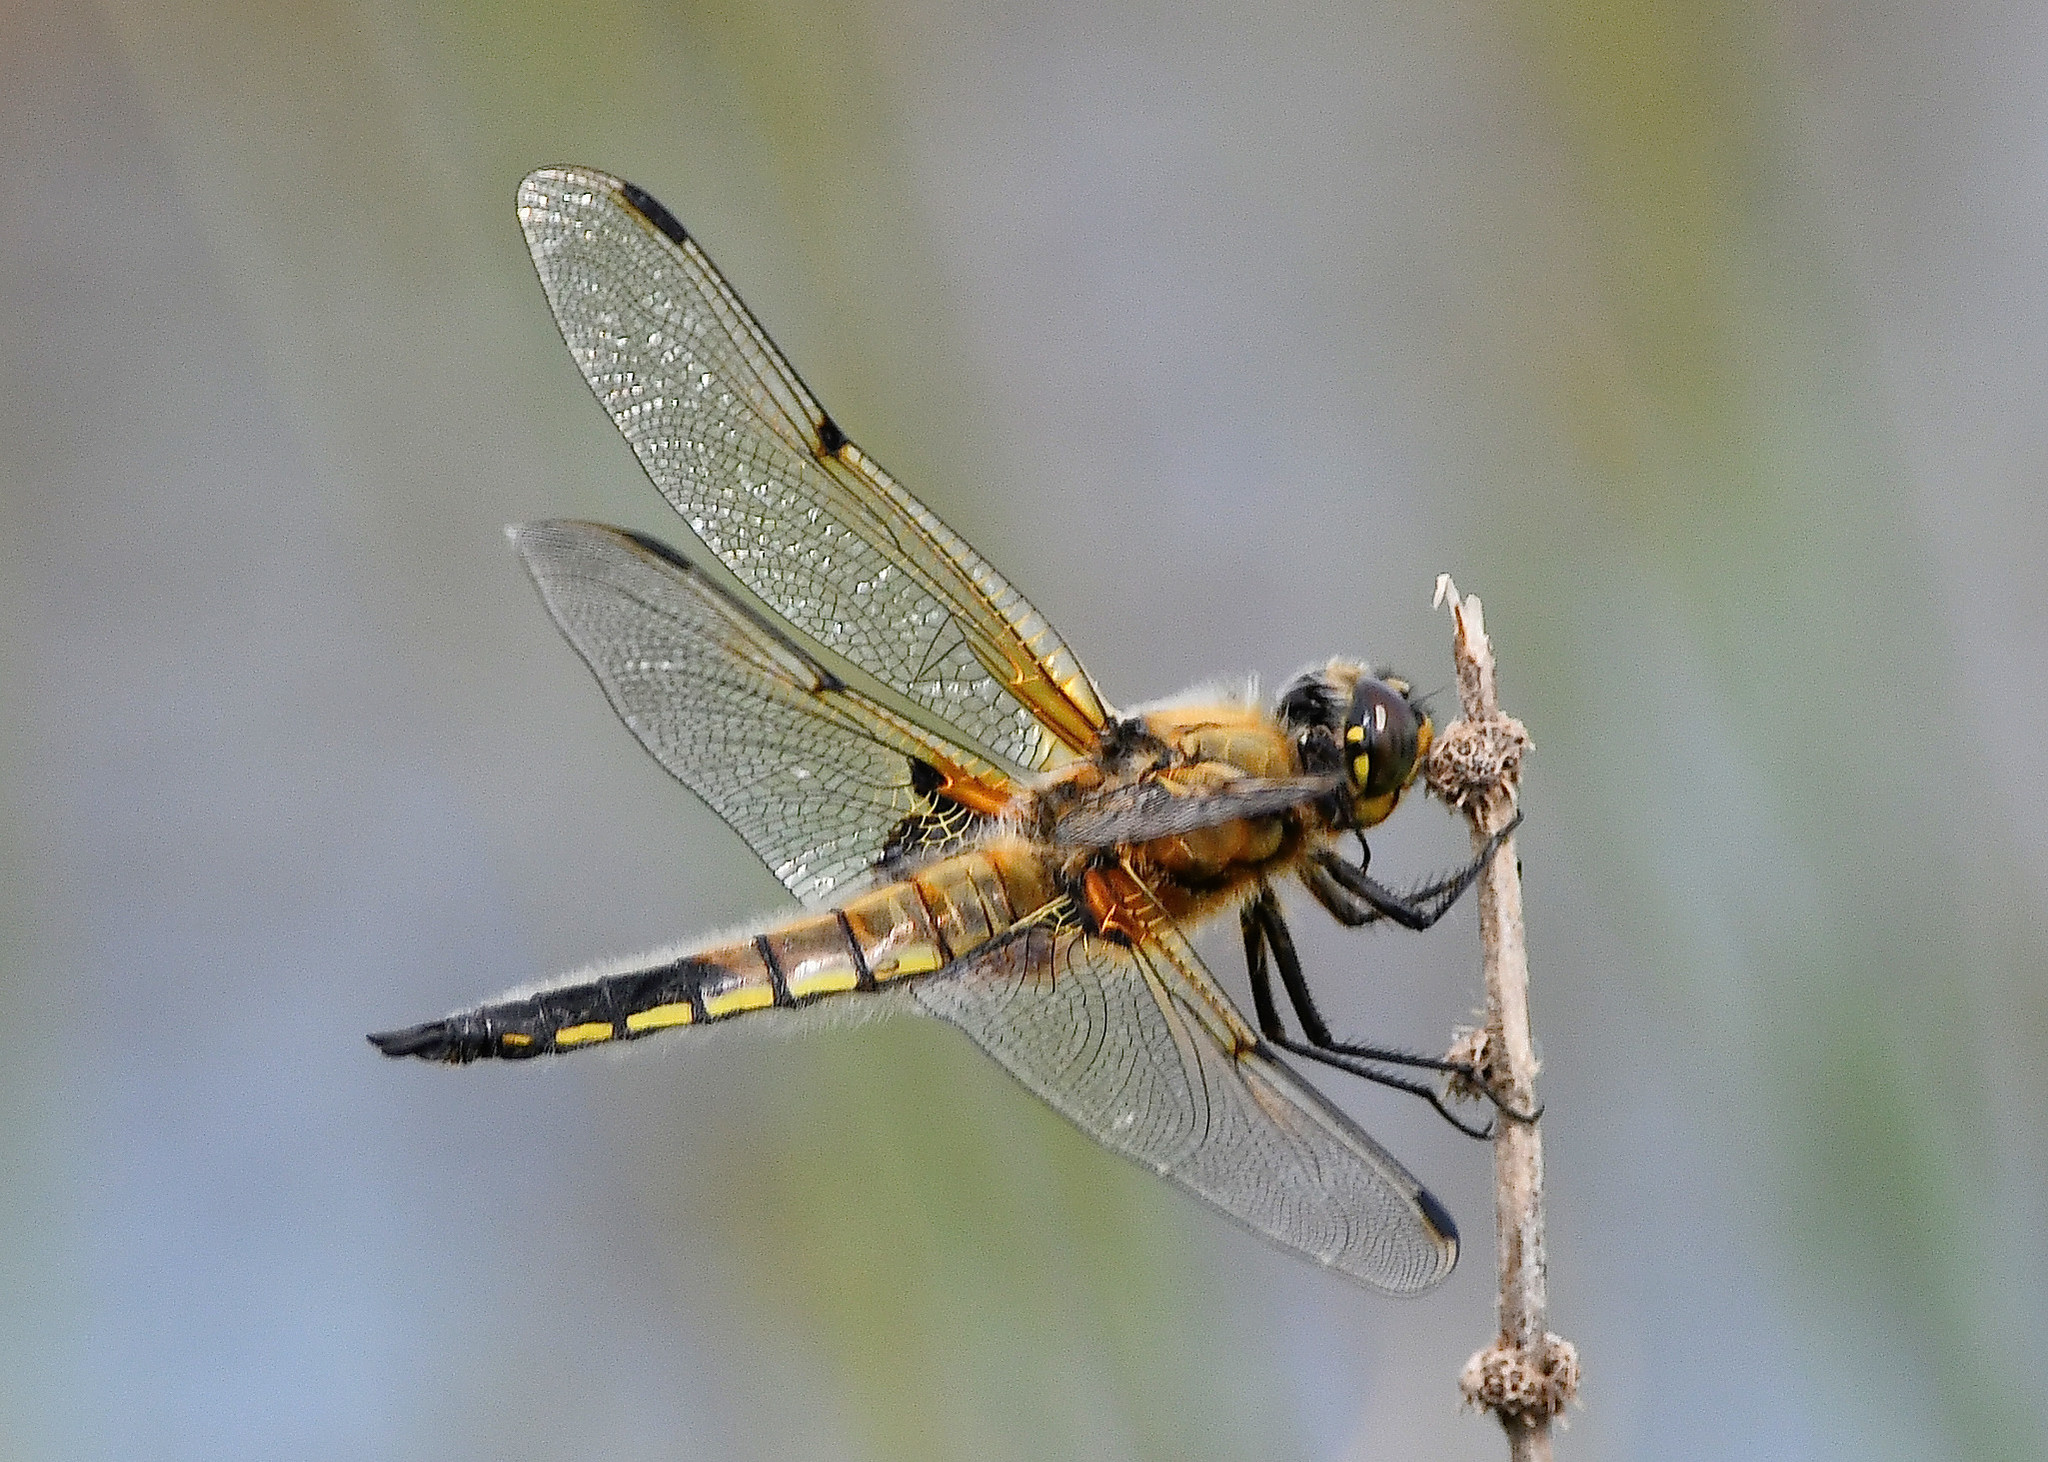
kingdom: Animalia
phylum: Arthropoda
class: Insecta
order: Odonata
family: Libellulidae
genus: Libellula
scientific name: Libellula quadrimaculata
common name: Four-spotted chaser
